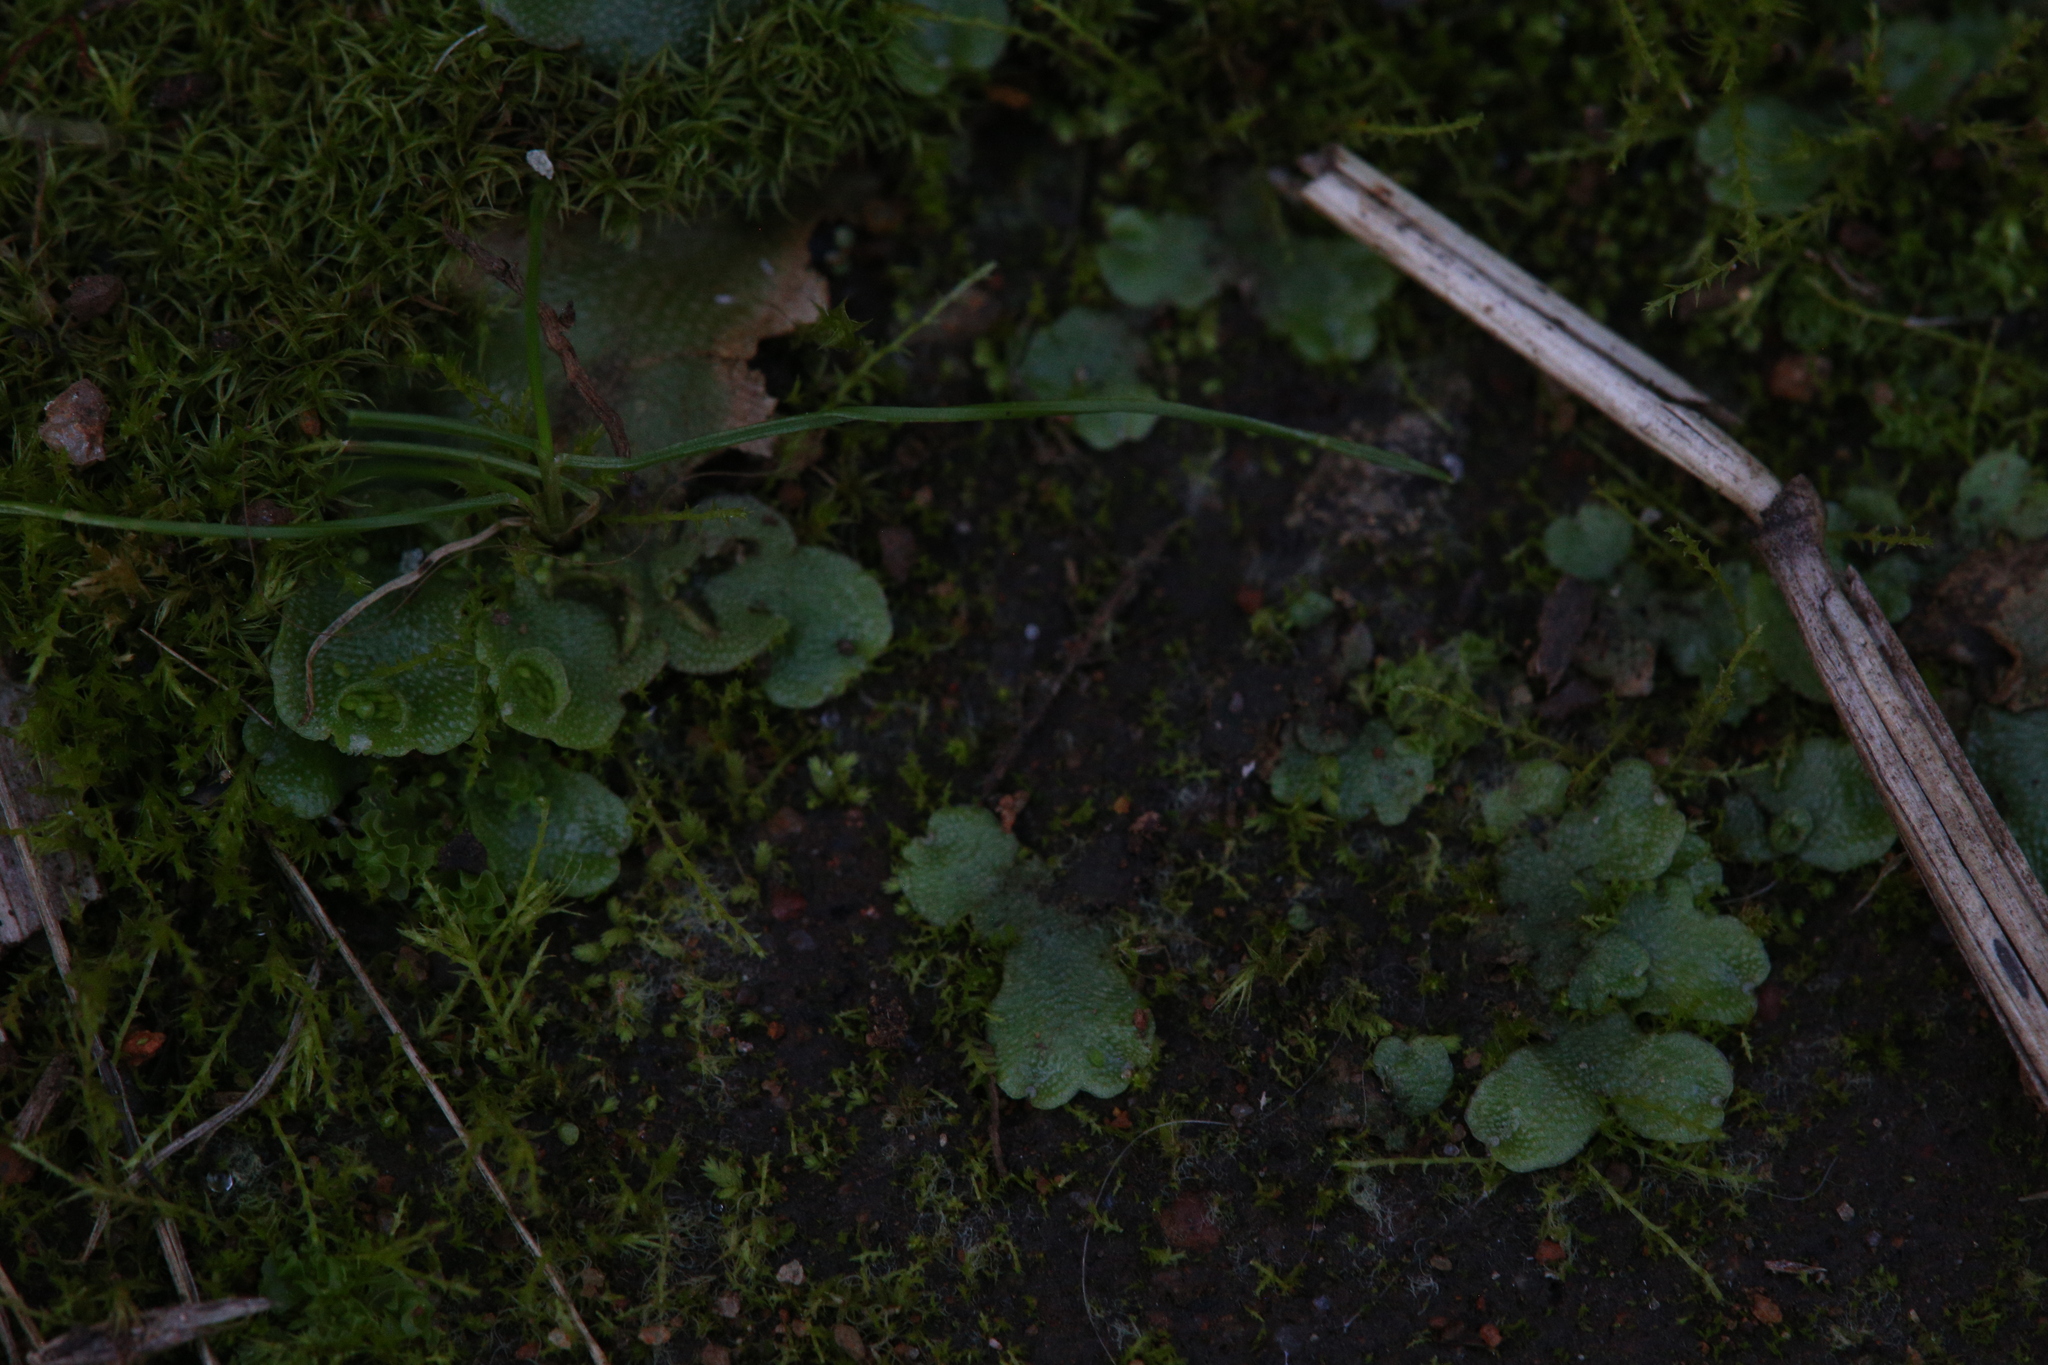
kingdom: Plantae
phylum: Marchantiophyta
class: Marchantiopsida
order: Lunulariales
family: Lunulariaceae
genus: Lunularia
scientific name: Lunularia cruciata
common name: Crescent-cup liverwort
